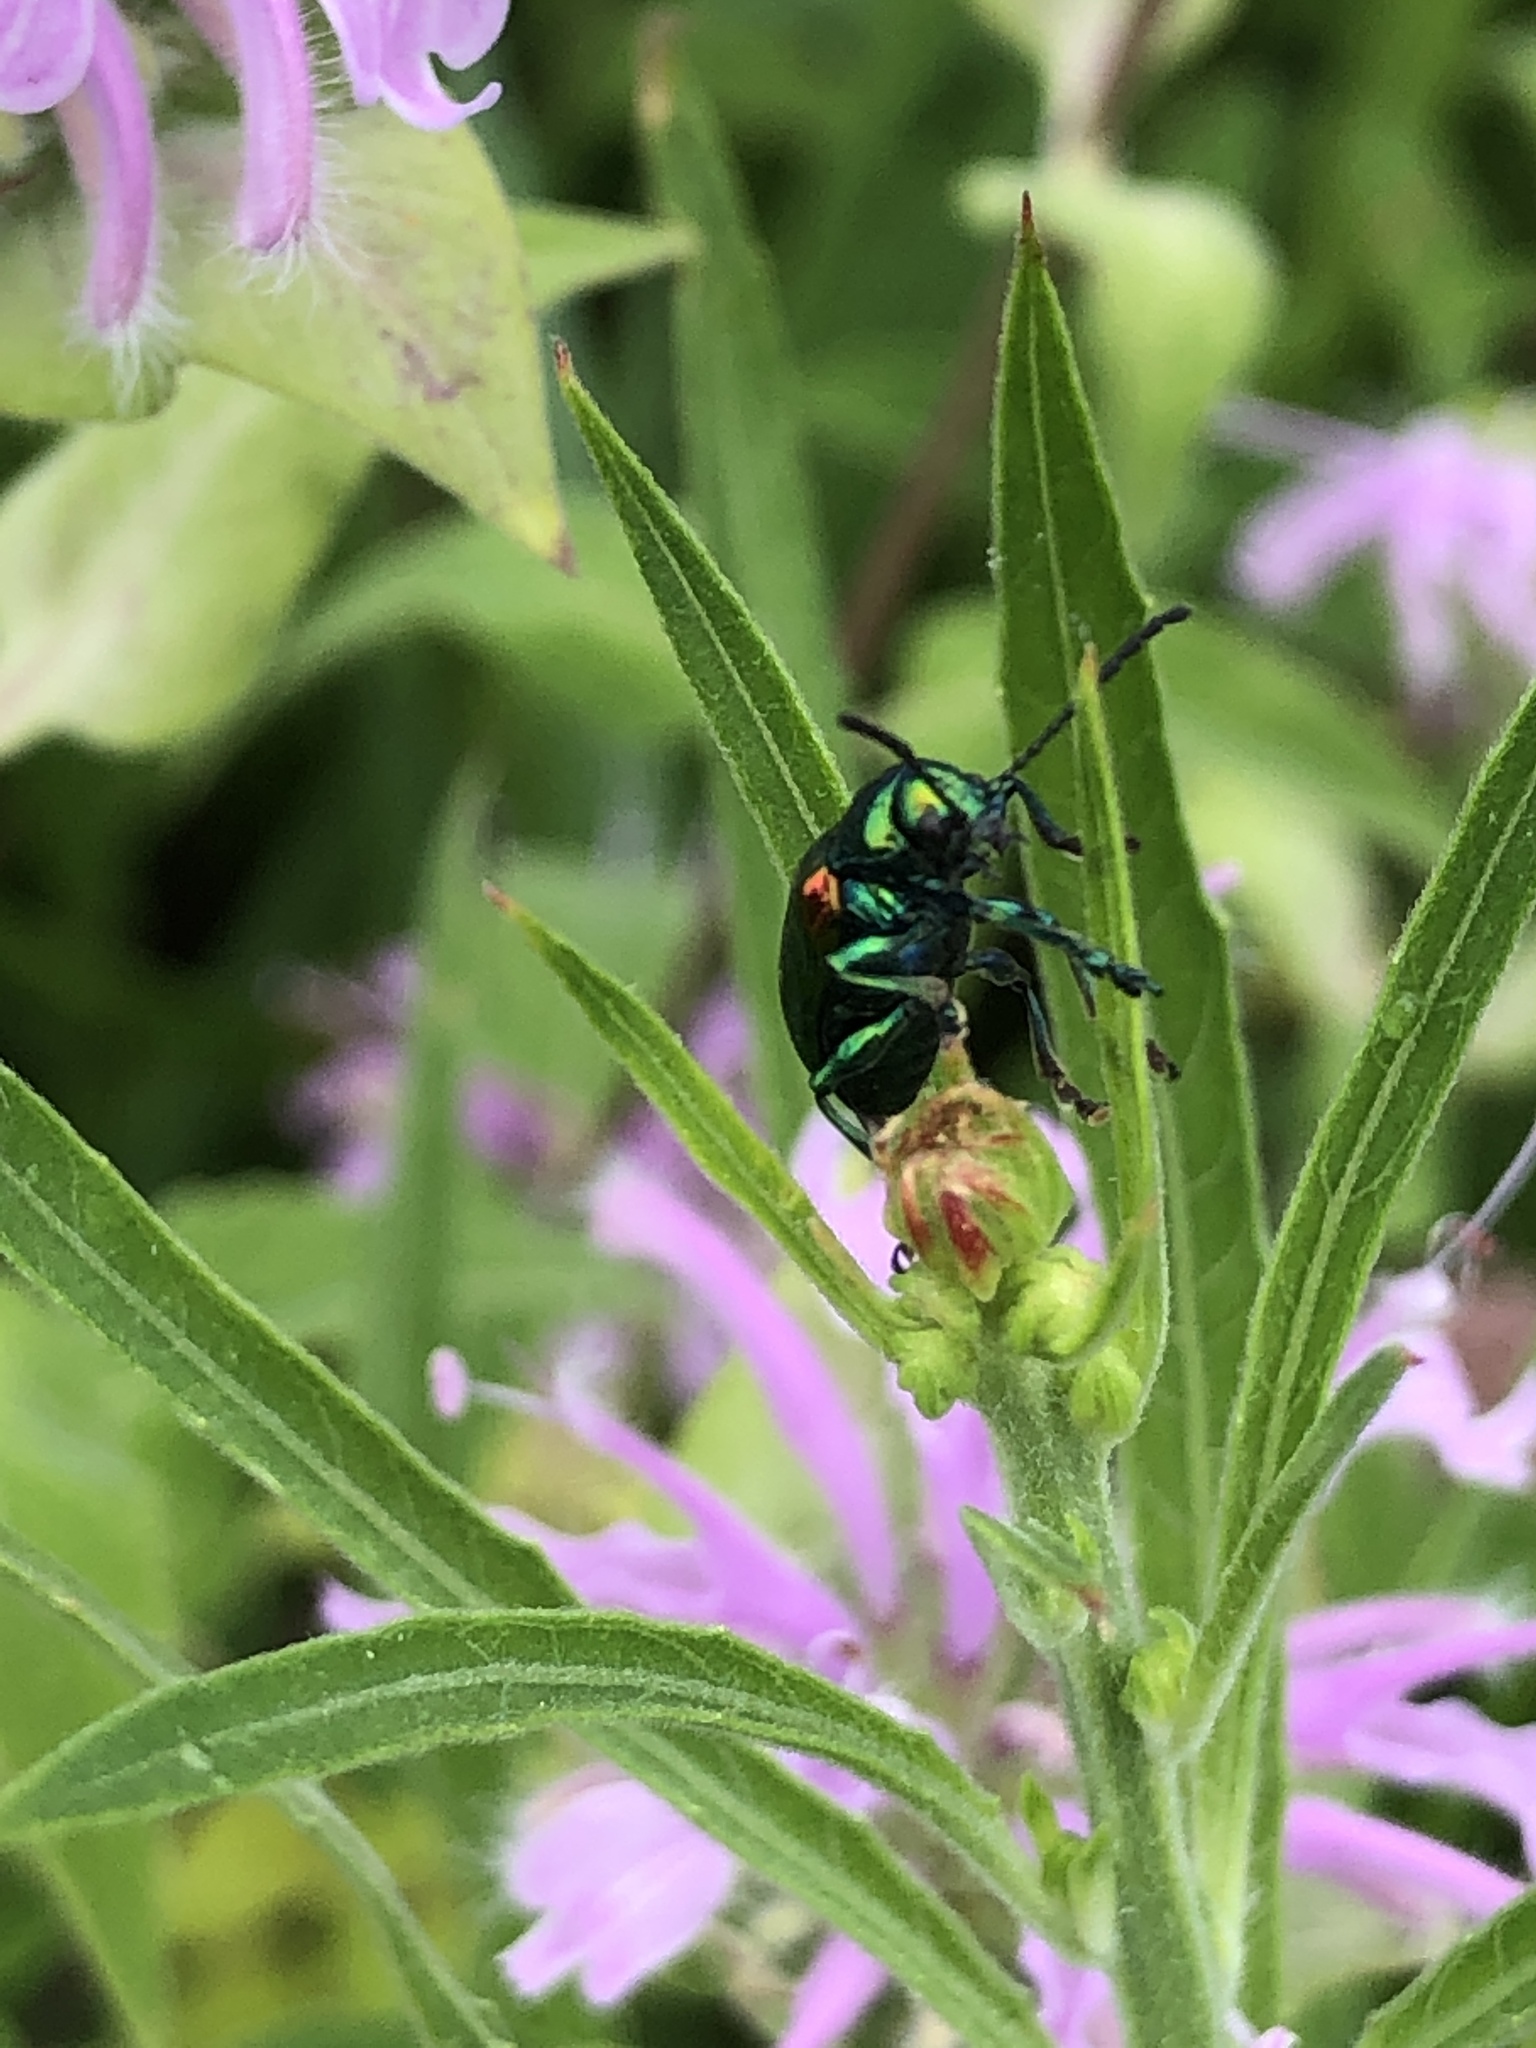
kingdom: Animalia
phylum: Arthropoda
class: Insecta
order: Coleoptera
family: Chrysomelidae
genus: Chrysochus
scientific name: Chrysochus auratus
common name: Dogbane leaf beetle
